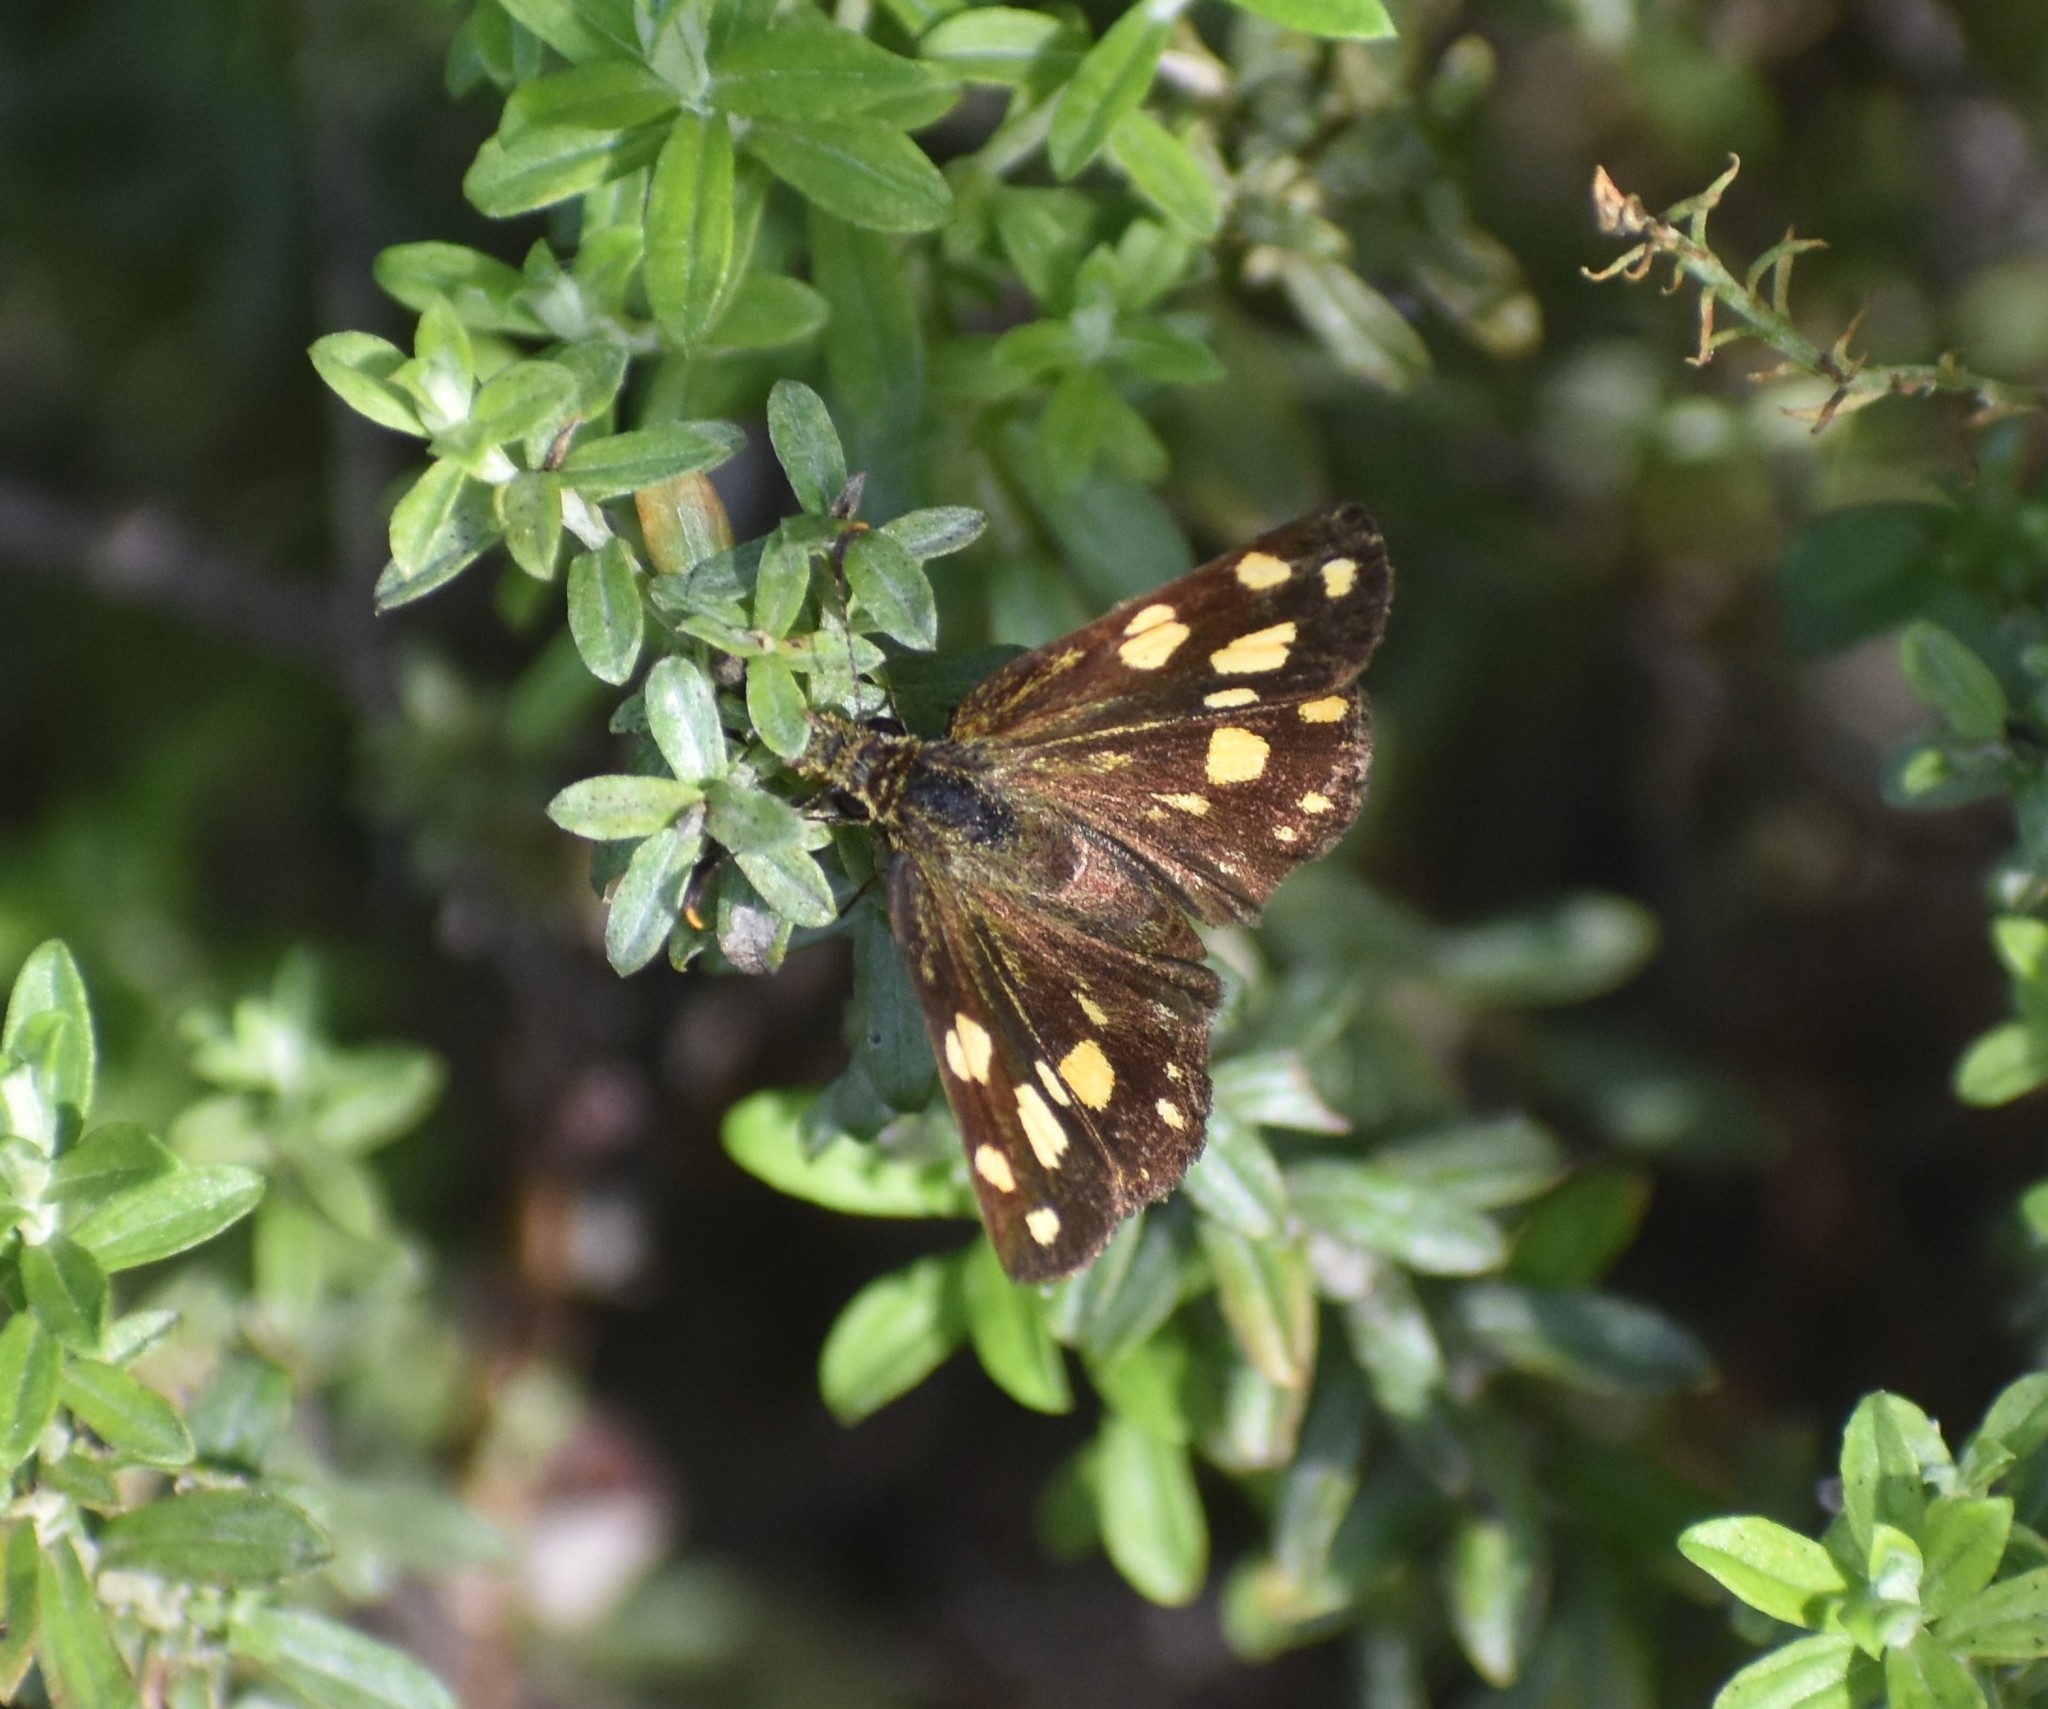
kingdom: Animalia
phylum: Arthropoda
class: Insecta
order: Lepidoptera
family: Hesperiidae
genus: Metisella
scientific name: Metisella metis
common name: Western gold-spotted sylph
